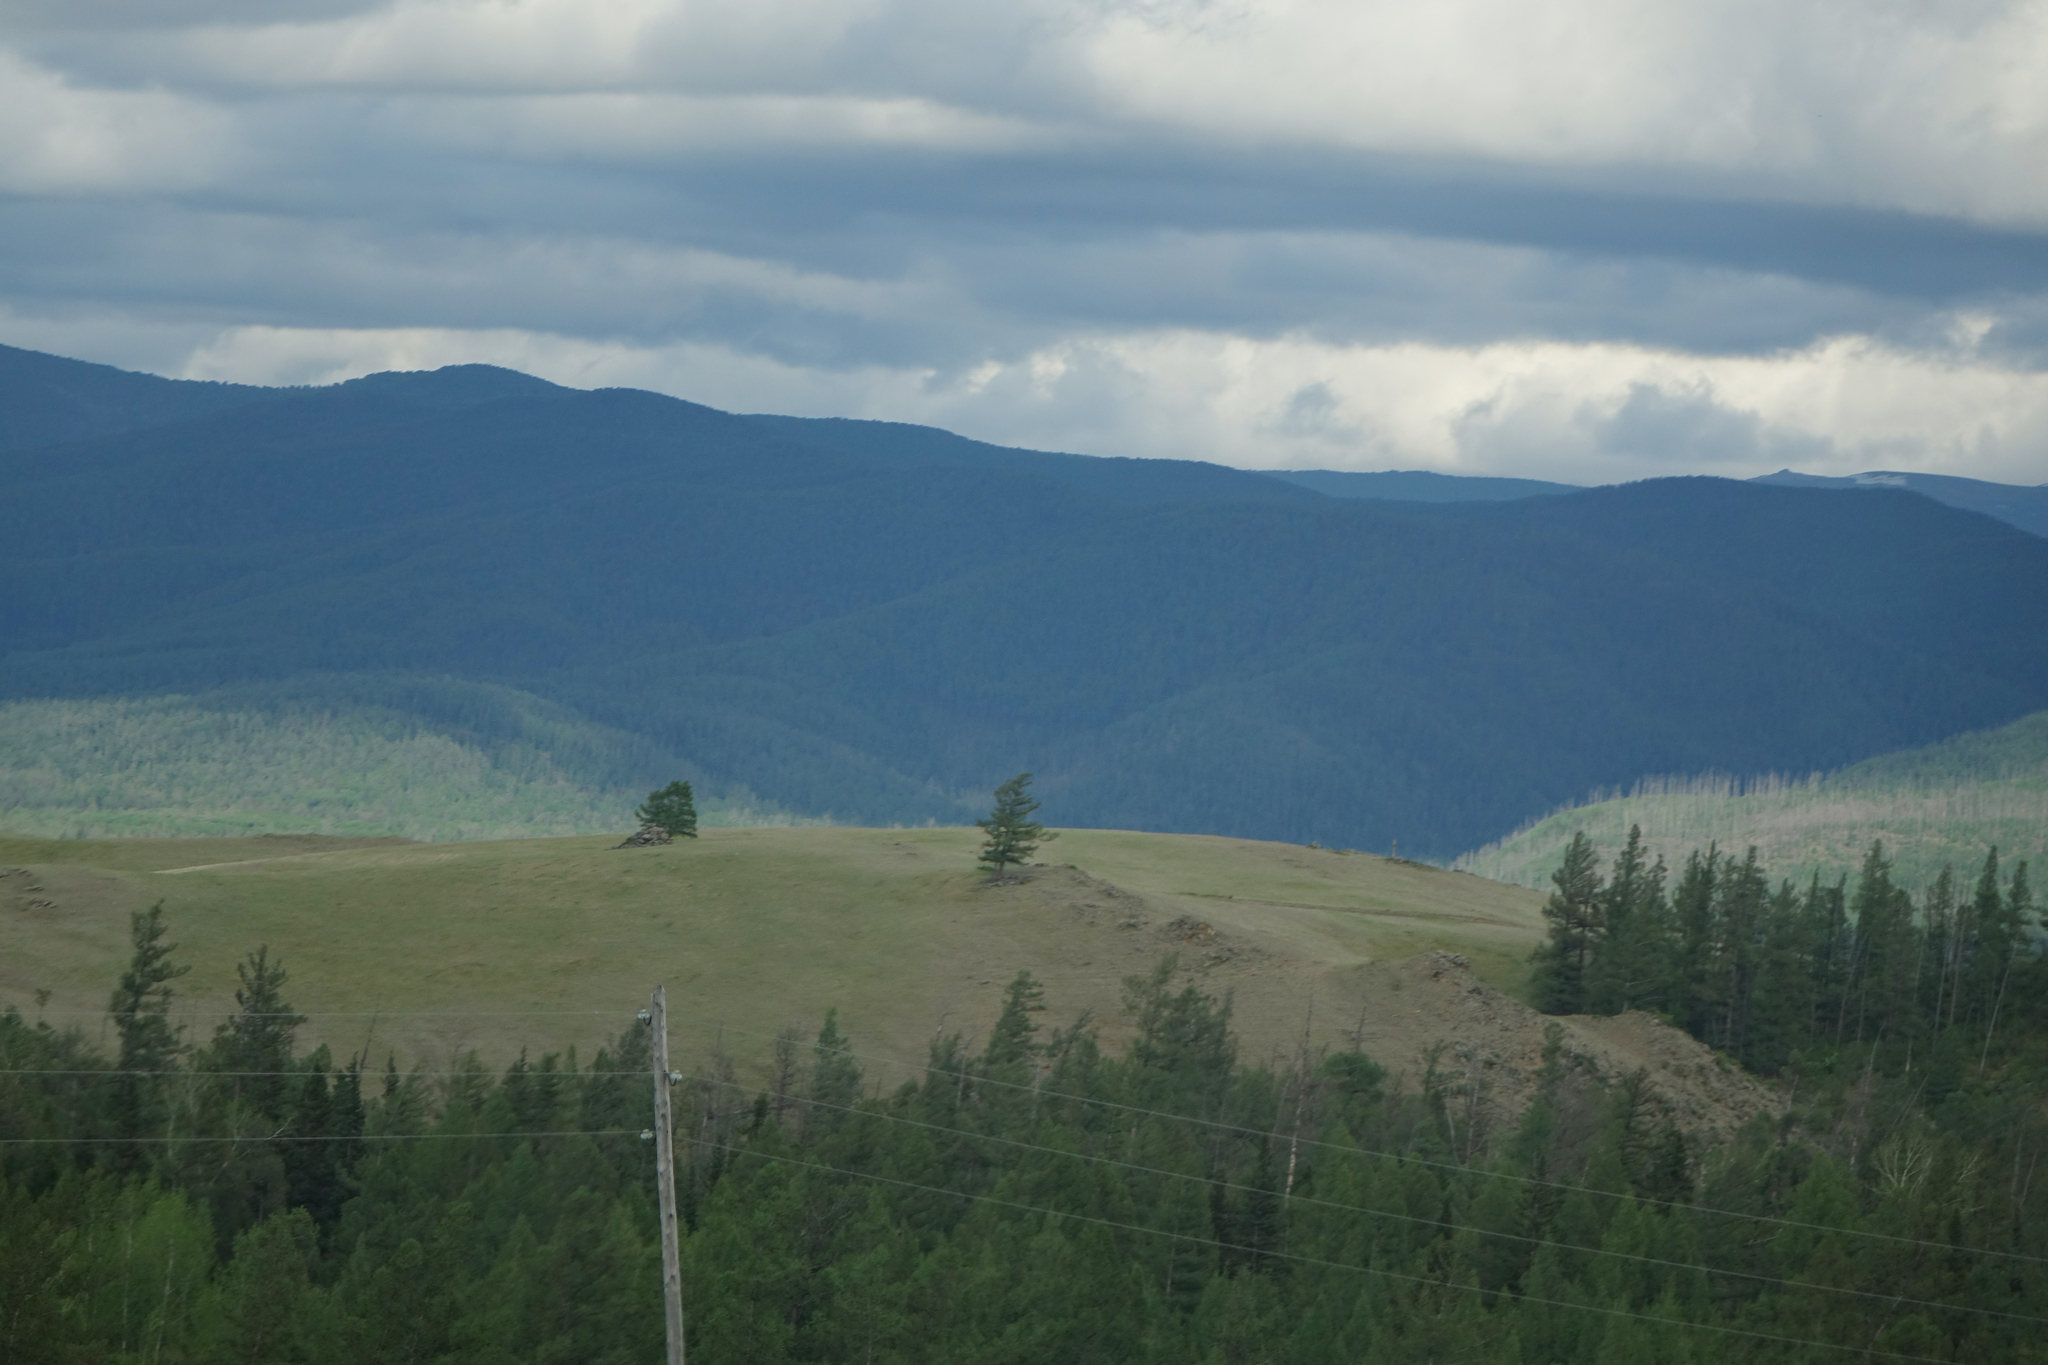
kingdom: Plantae
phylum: Tracheophyta
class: Pinopsida
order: Pinales
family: Pinaceae
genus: Larix
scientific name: Larix sibirica
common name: Siberian larch
